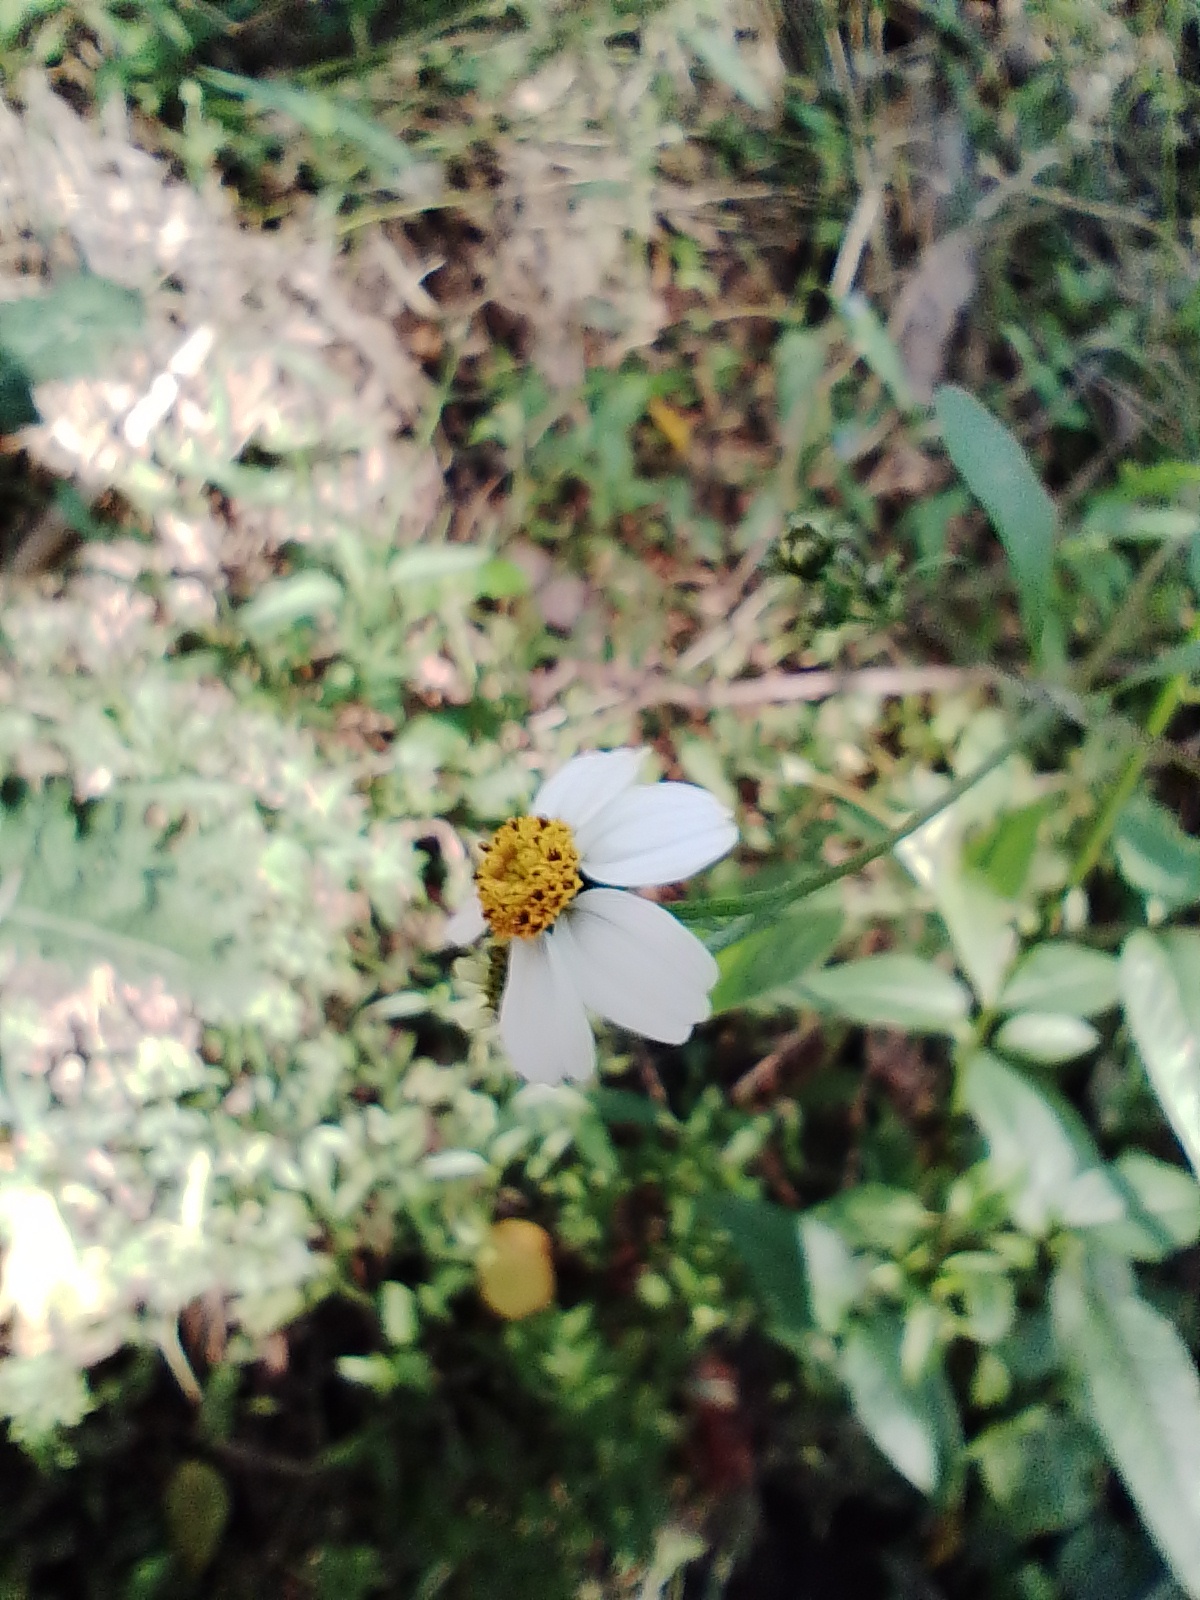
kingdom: Plantae
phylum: Tracheophyta
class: Magnoliopsida
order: Asterales
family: Asteraceae
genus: Bidens
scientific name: Bidens pilosa
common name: Black-jack
